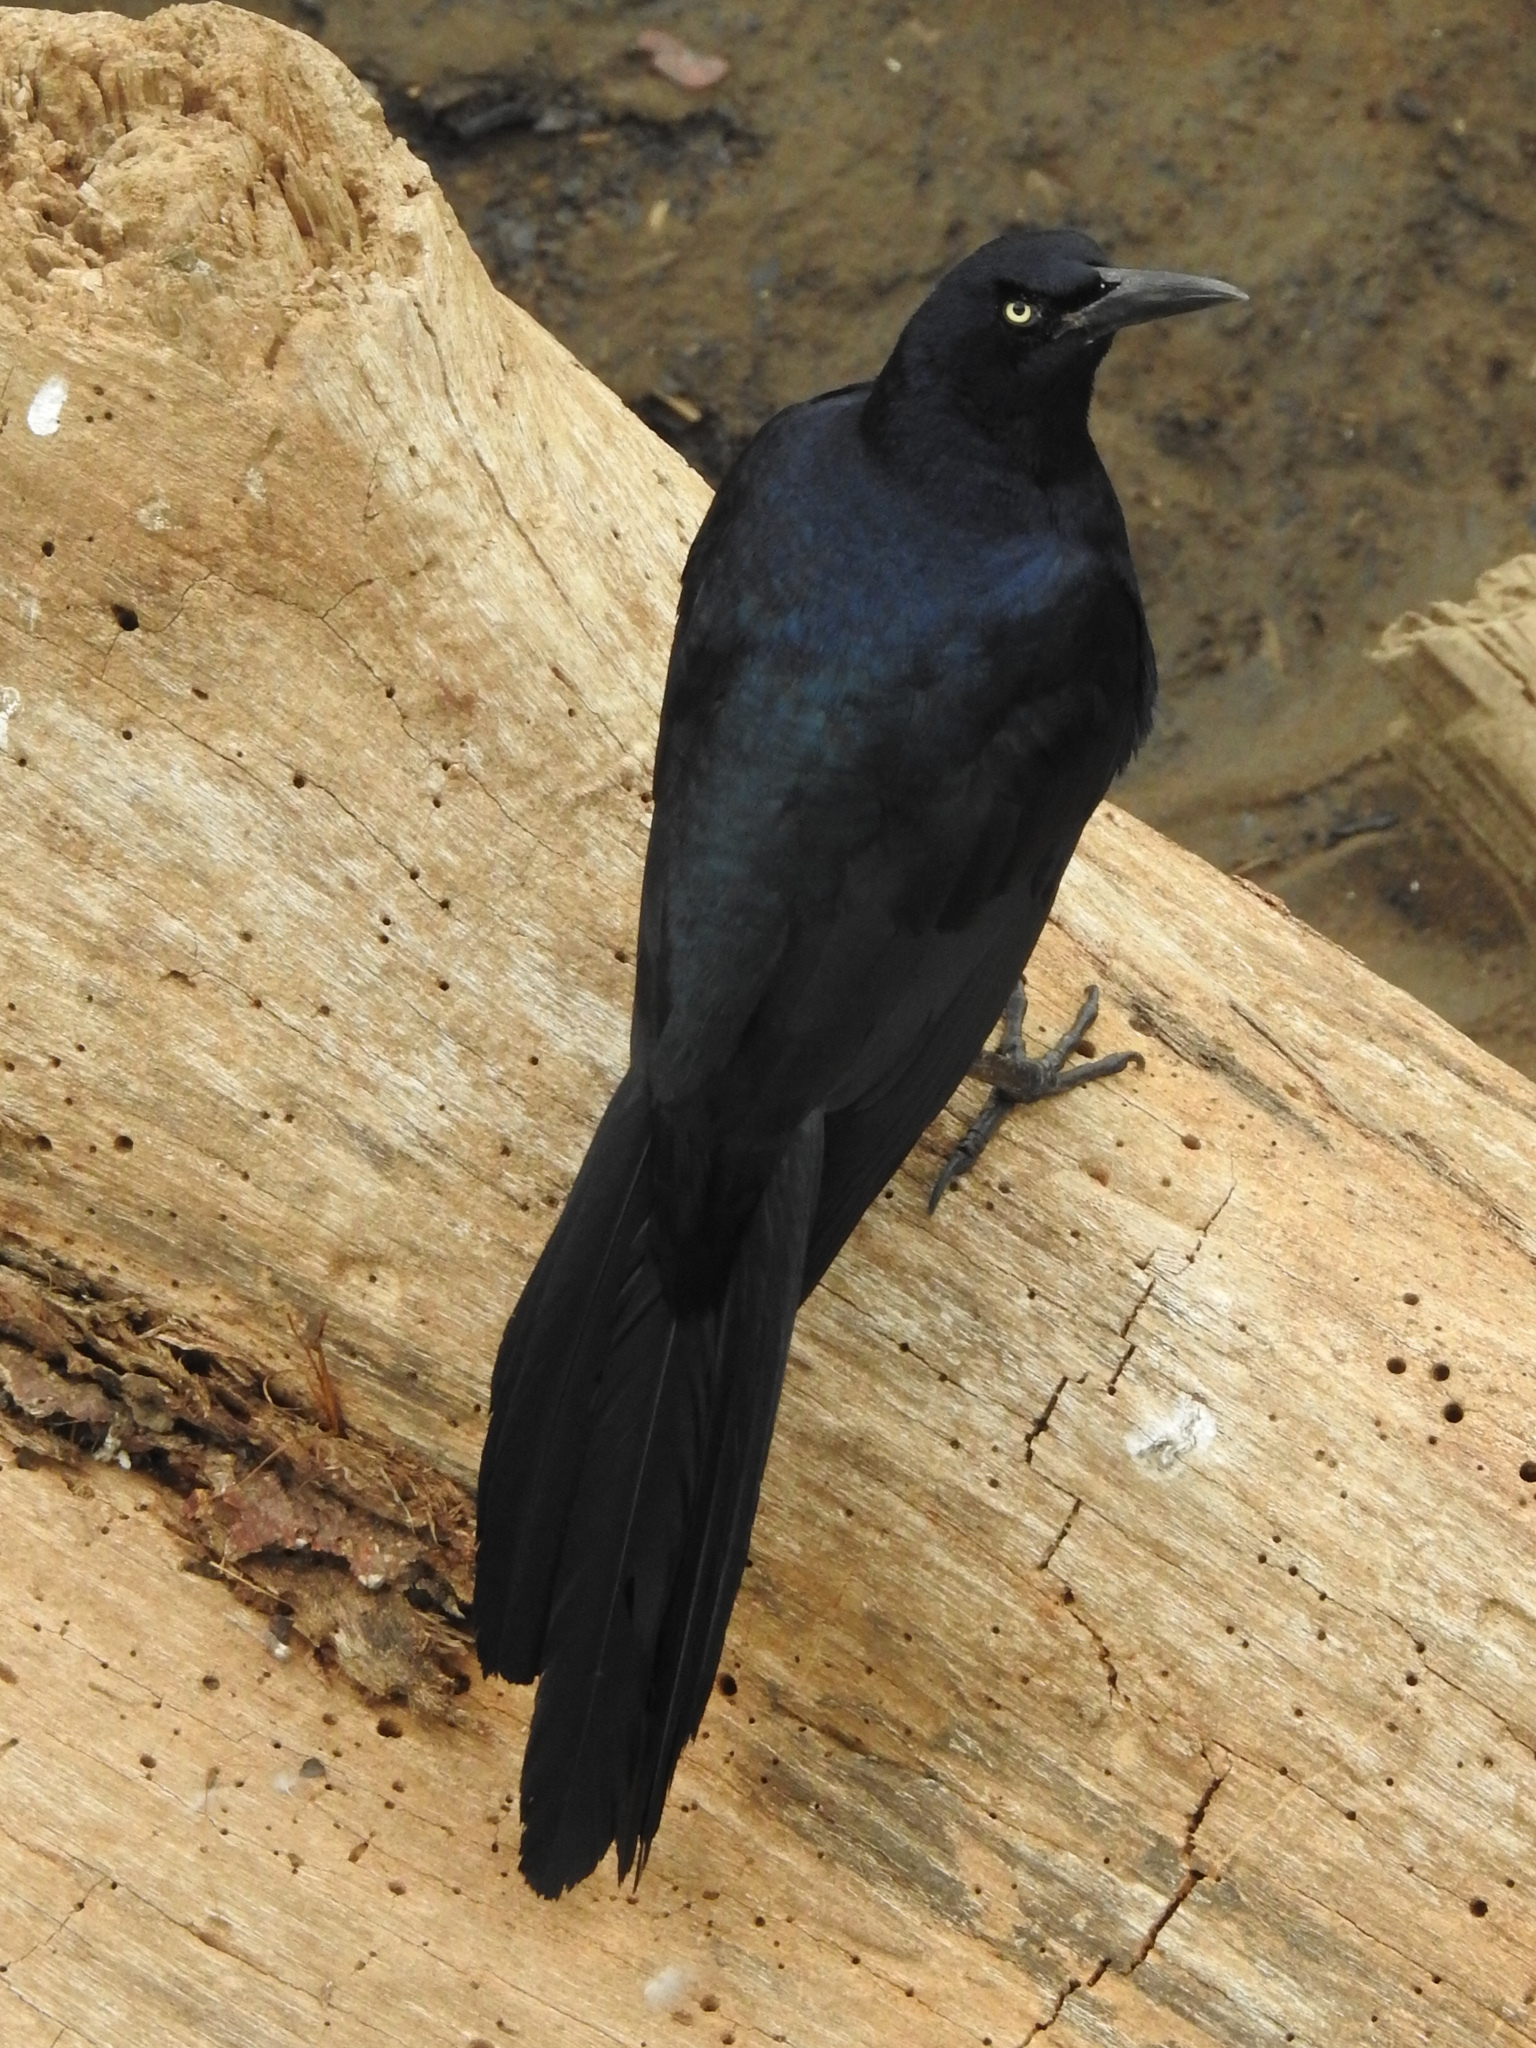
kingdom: Animalia
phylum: Chordata
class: Aves
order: Passeriformes
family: Icteridae
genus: Quiscalus
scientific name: Quiscalus mexicanus
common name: Great-tailed grackle
